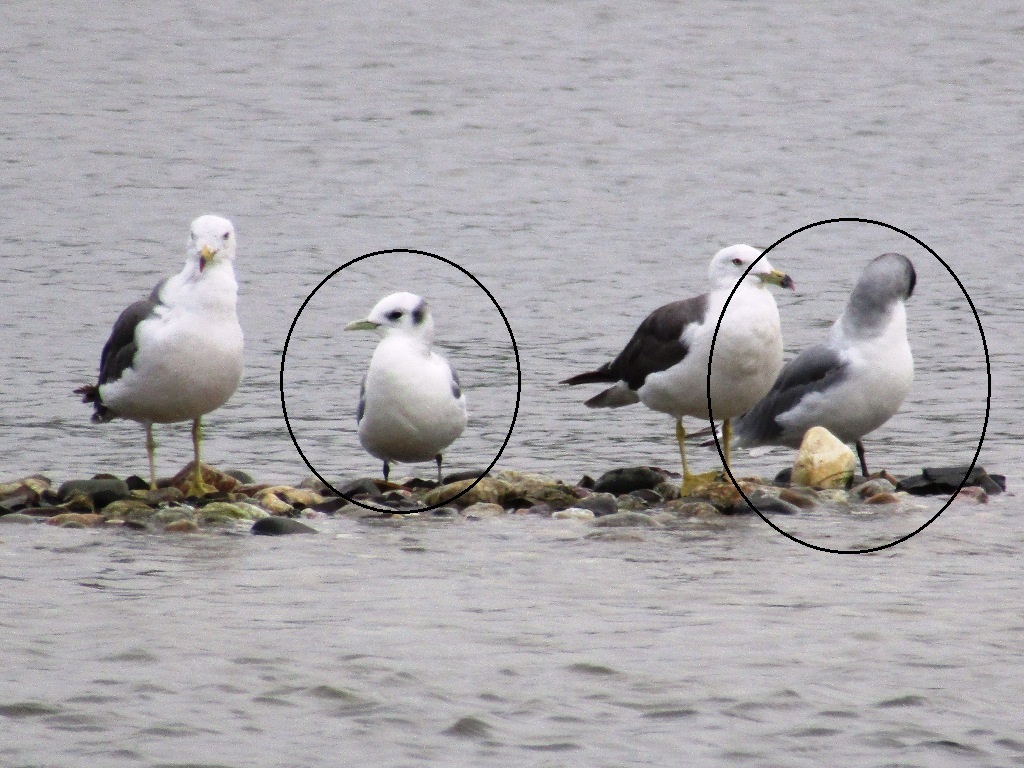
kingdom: Animalia
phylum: Chordata
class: Aves
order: Charadriiformes
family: Laridae
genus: Rissa
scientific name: Rissa tridactyla
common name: Black-legged kittiwake
